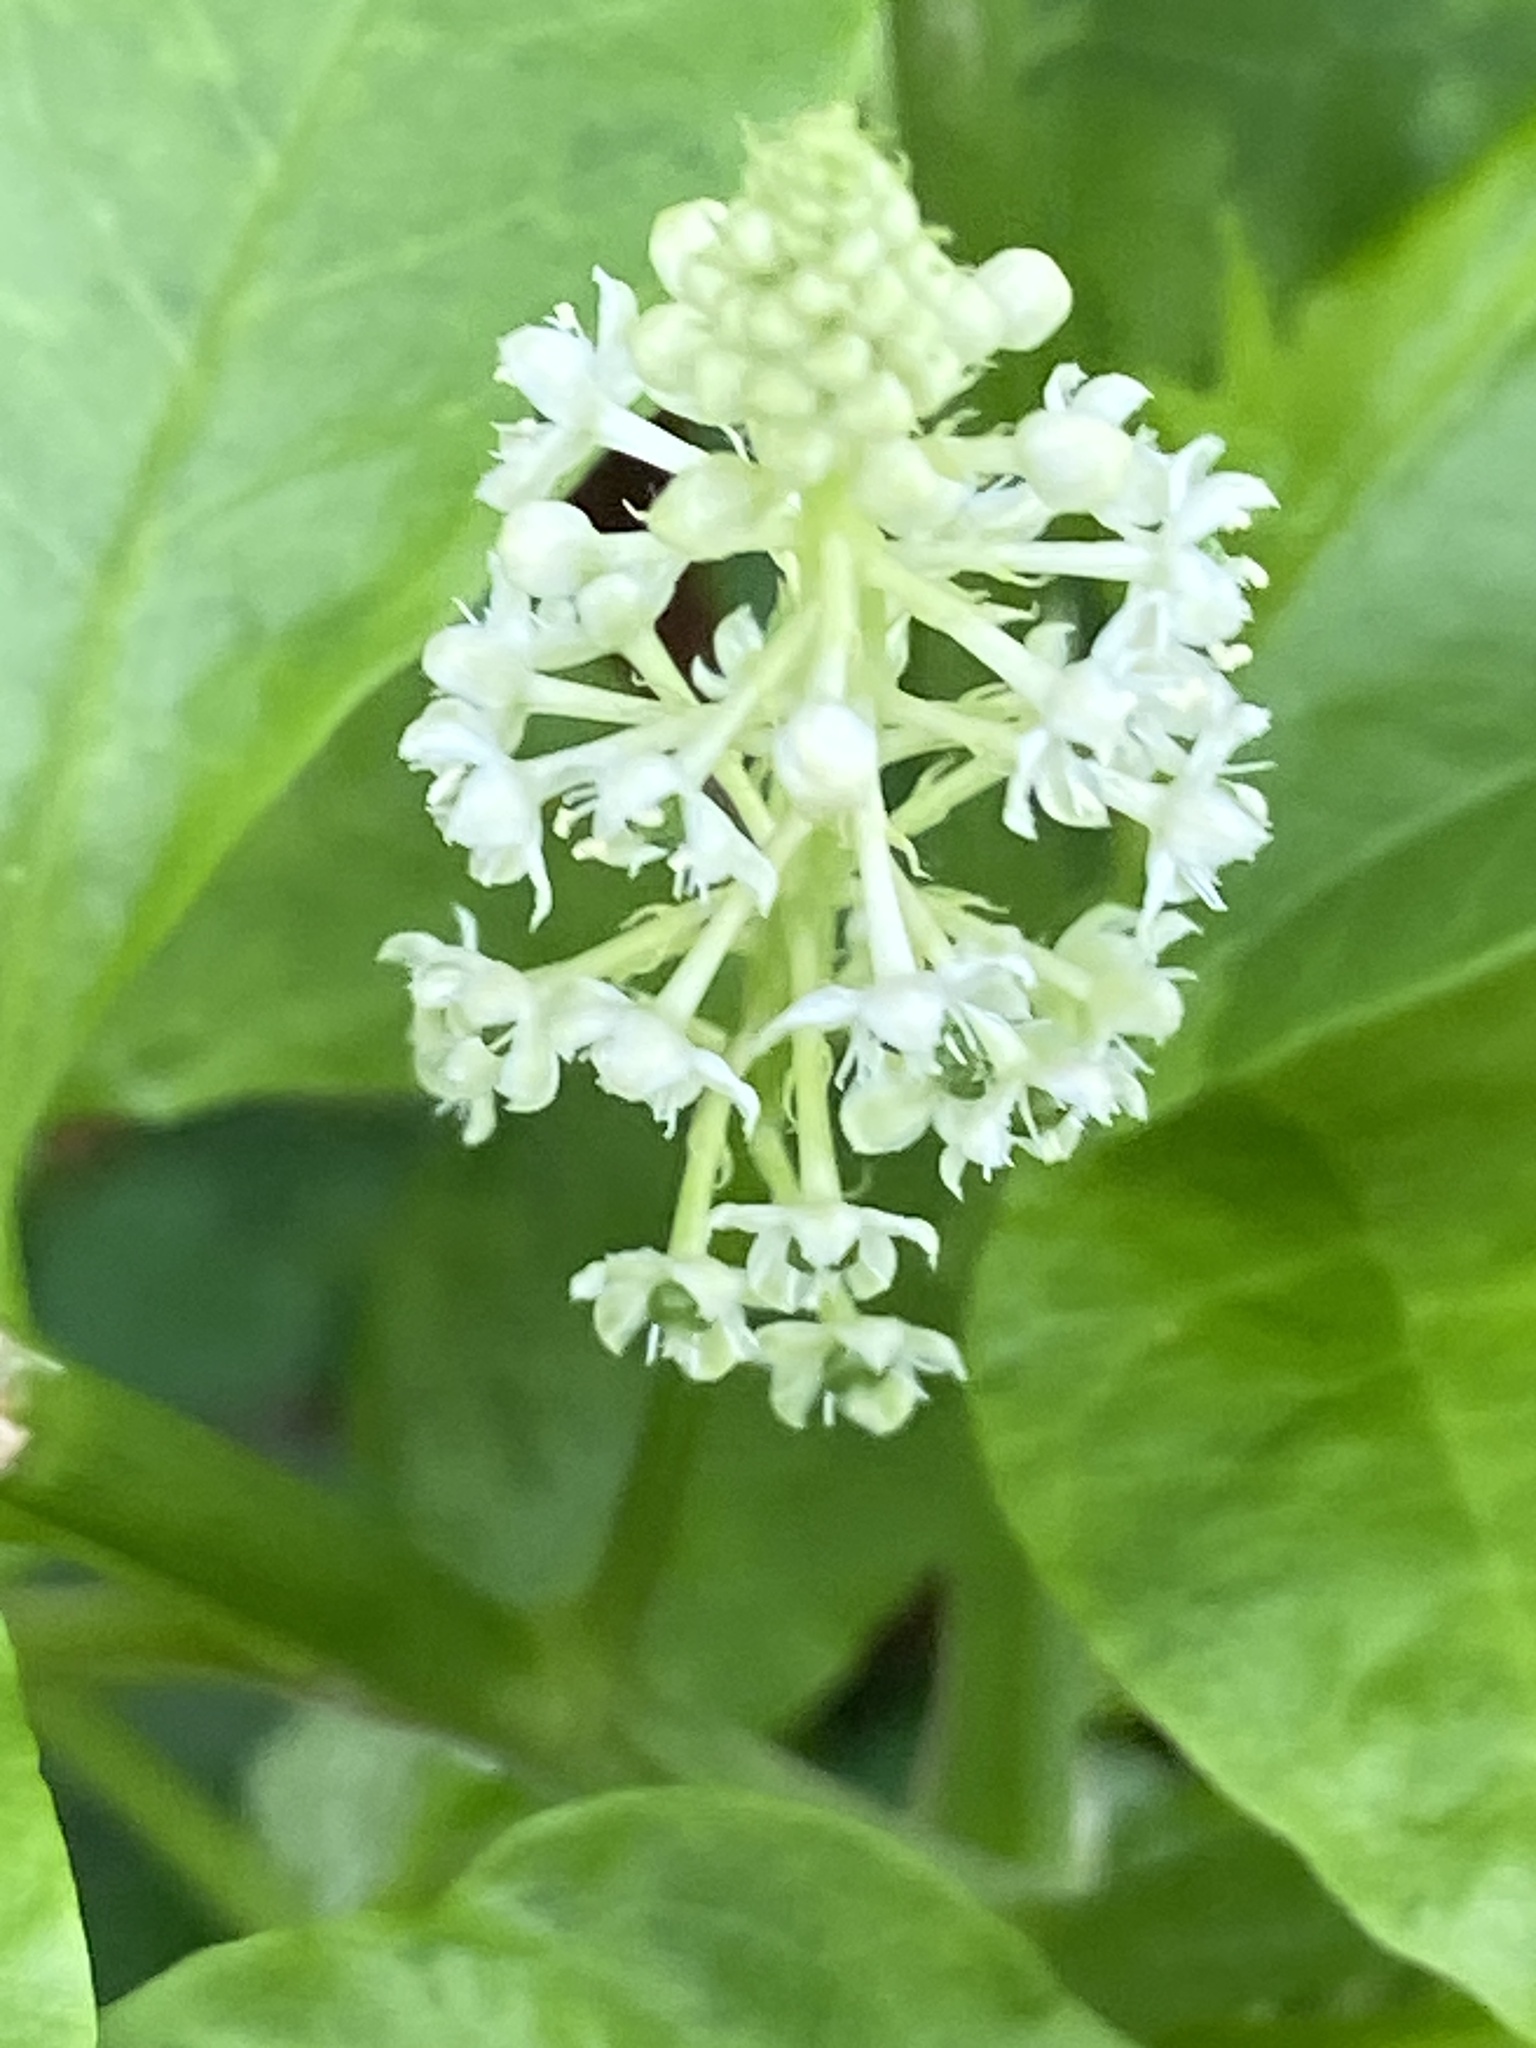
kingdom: Plantae
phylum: Tracheophyta
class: Magnoliopsida
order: Caryophyllales
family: Phytolaccaceae
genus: Phytolacca
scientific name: Phytolacca americana
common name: American pokeweed
